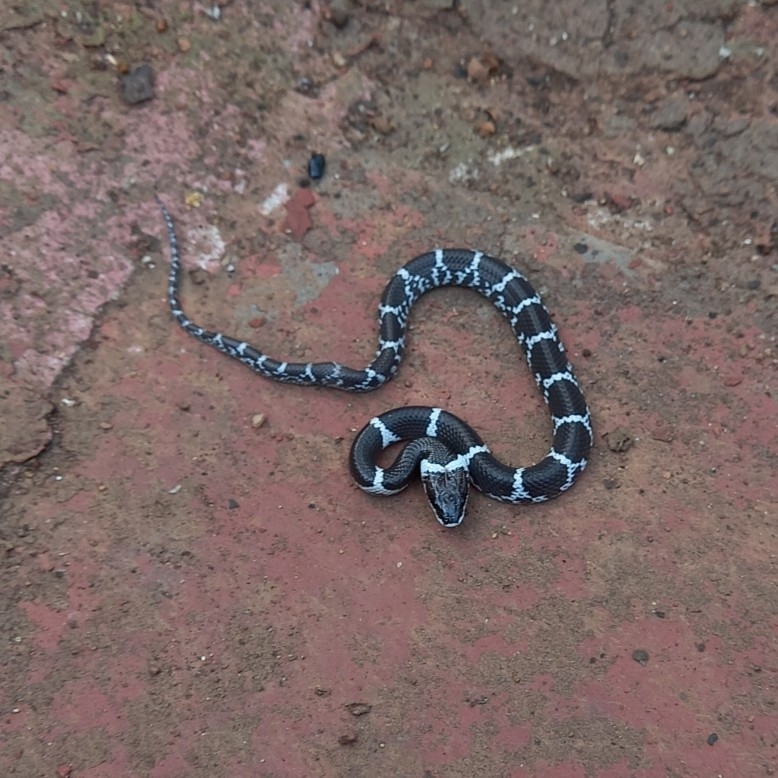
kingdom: Animalia
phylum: Chordata
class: Squamata
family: Colubridae
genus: Lycodon
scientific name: Lycodon aulicus
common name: Common wolf snake
